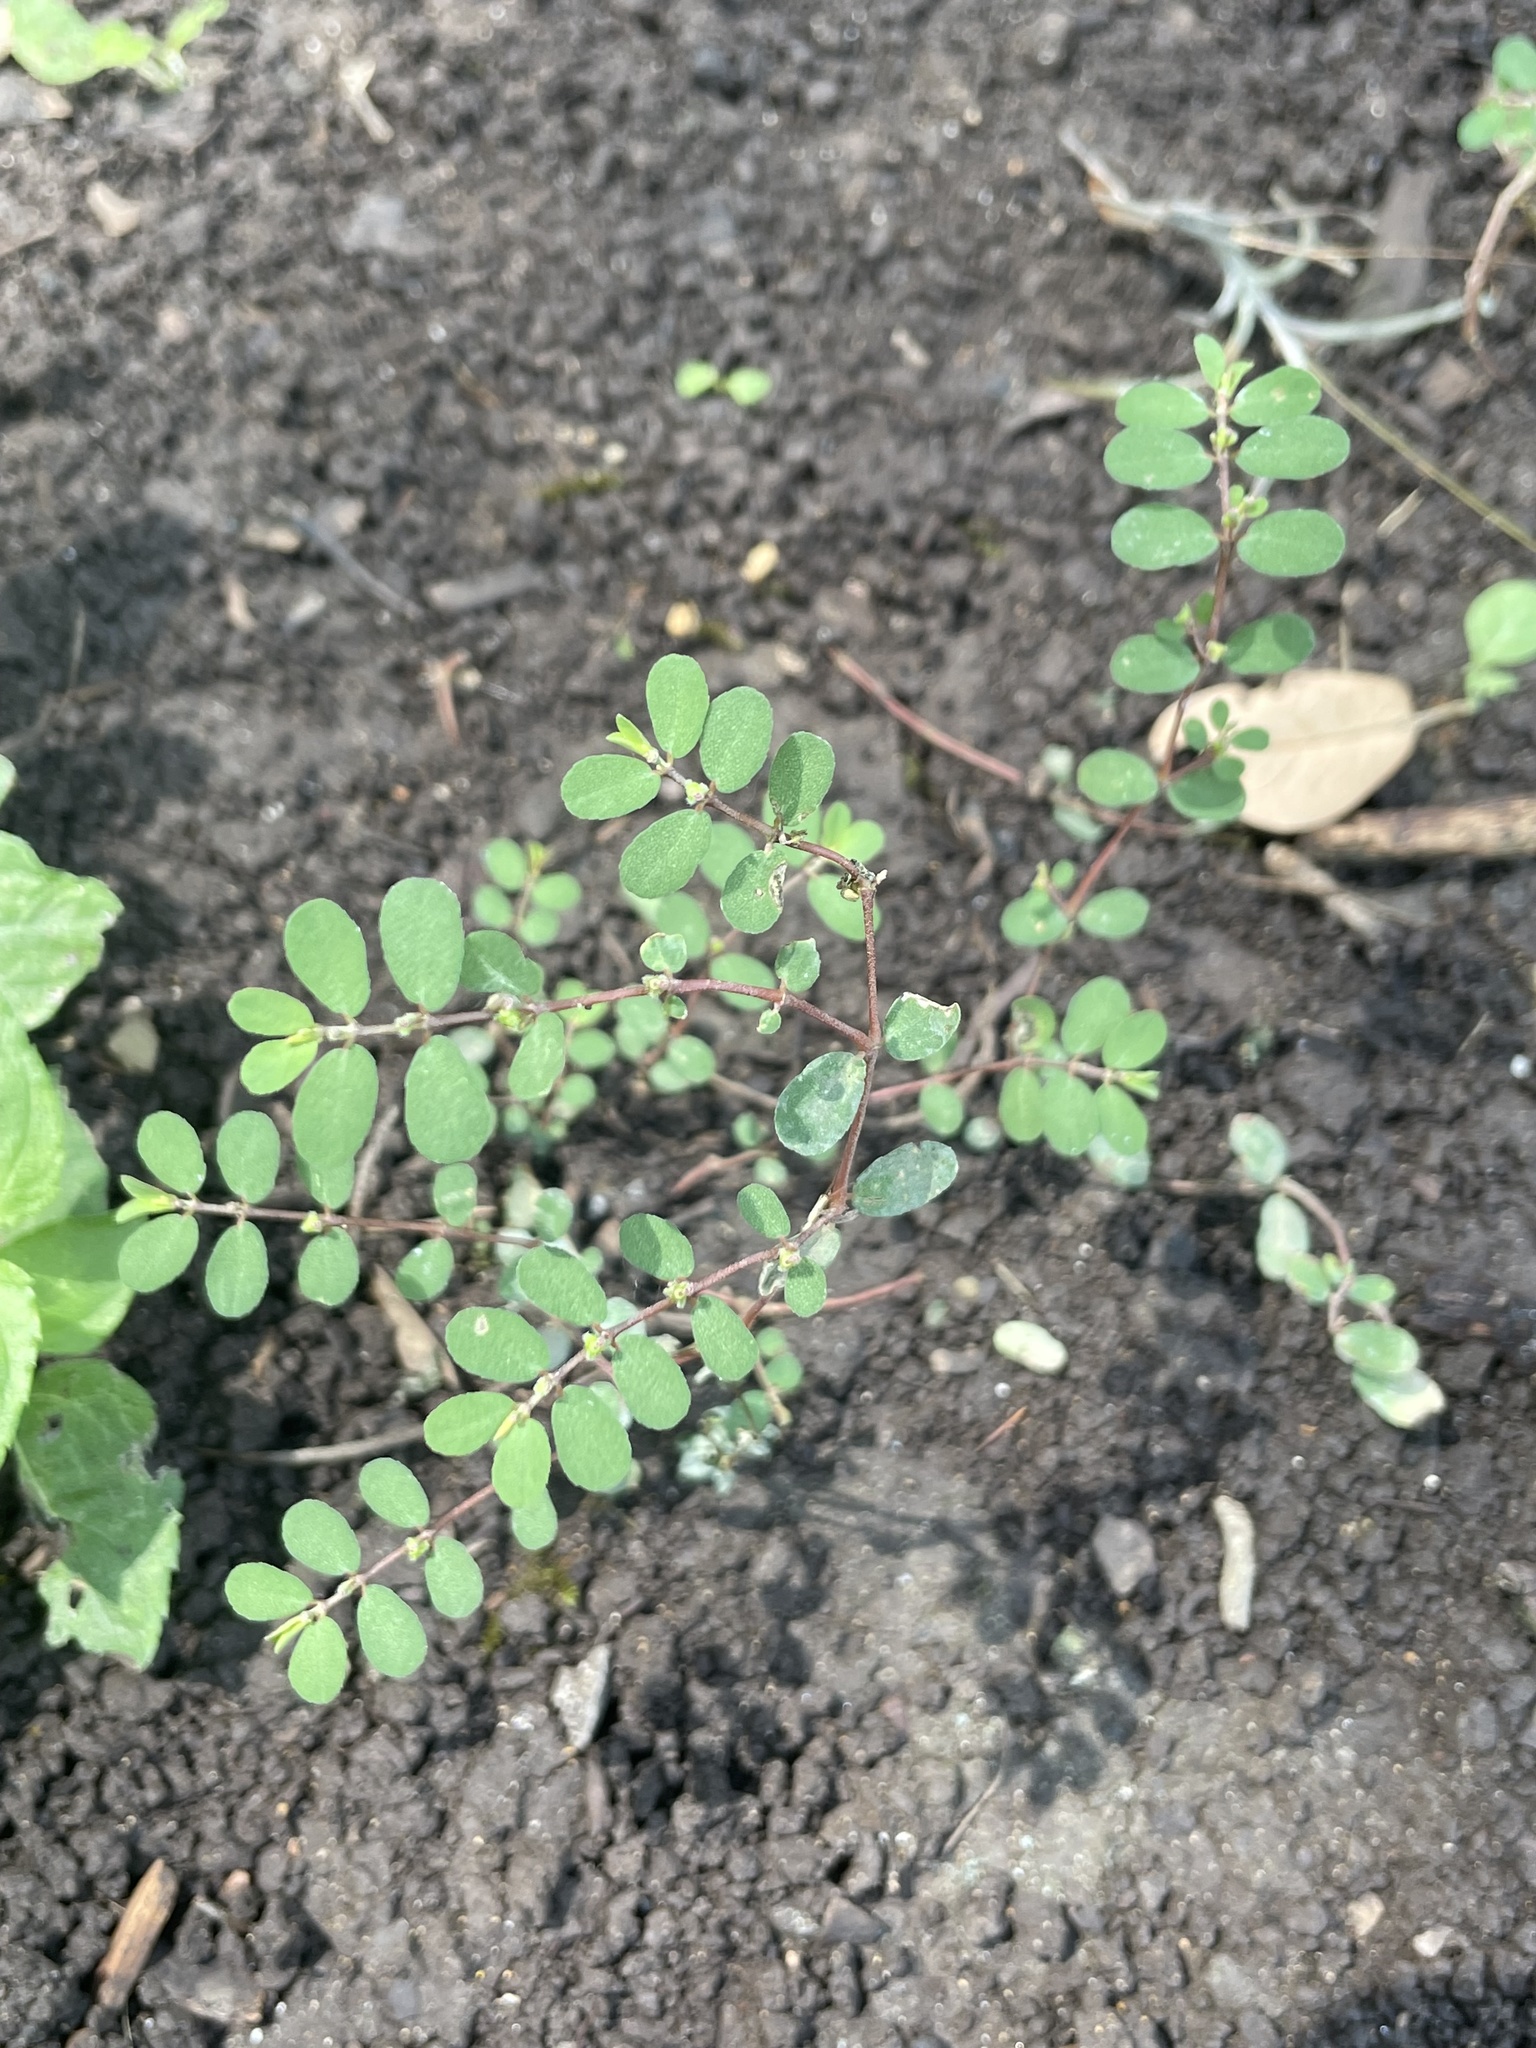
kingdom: Plantae
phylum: Tracheophyta
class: Magnoliopsida
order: Malpighiales
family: Euphorbiaceae
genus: Euphorbia
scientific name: Euphorbia prostrata
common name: Prostrate sandmat
